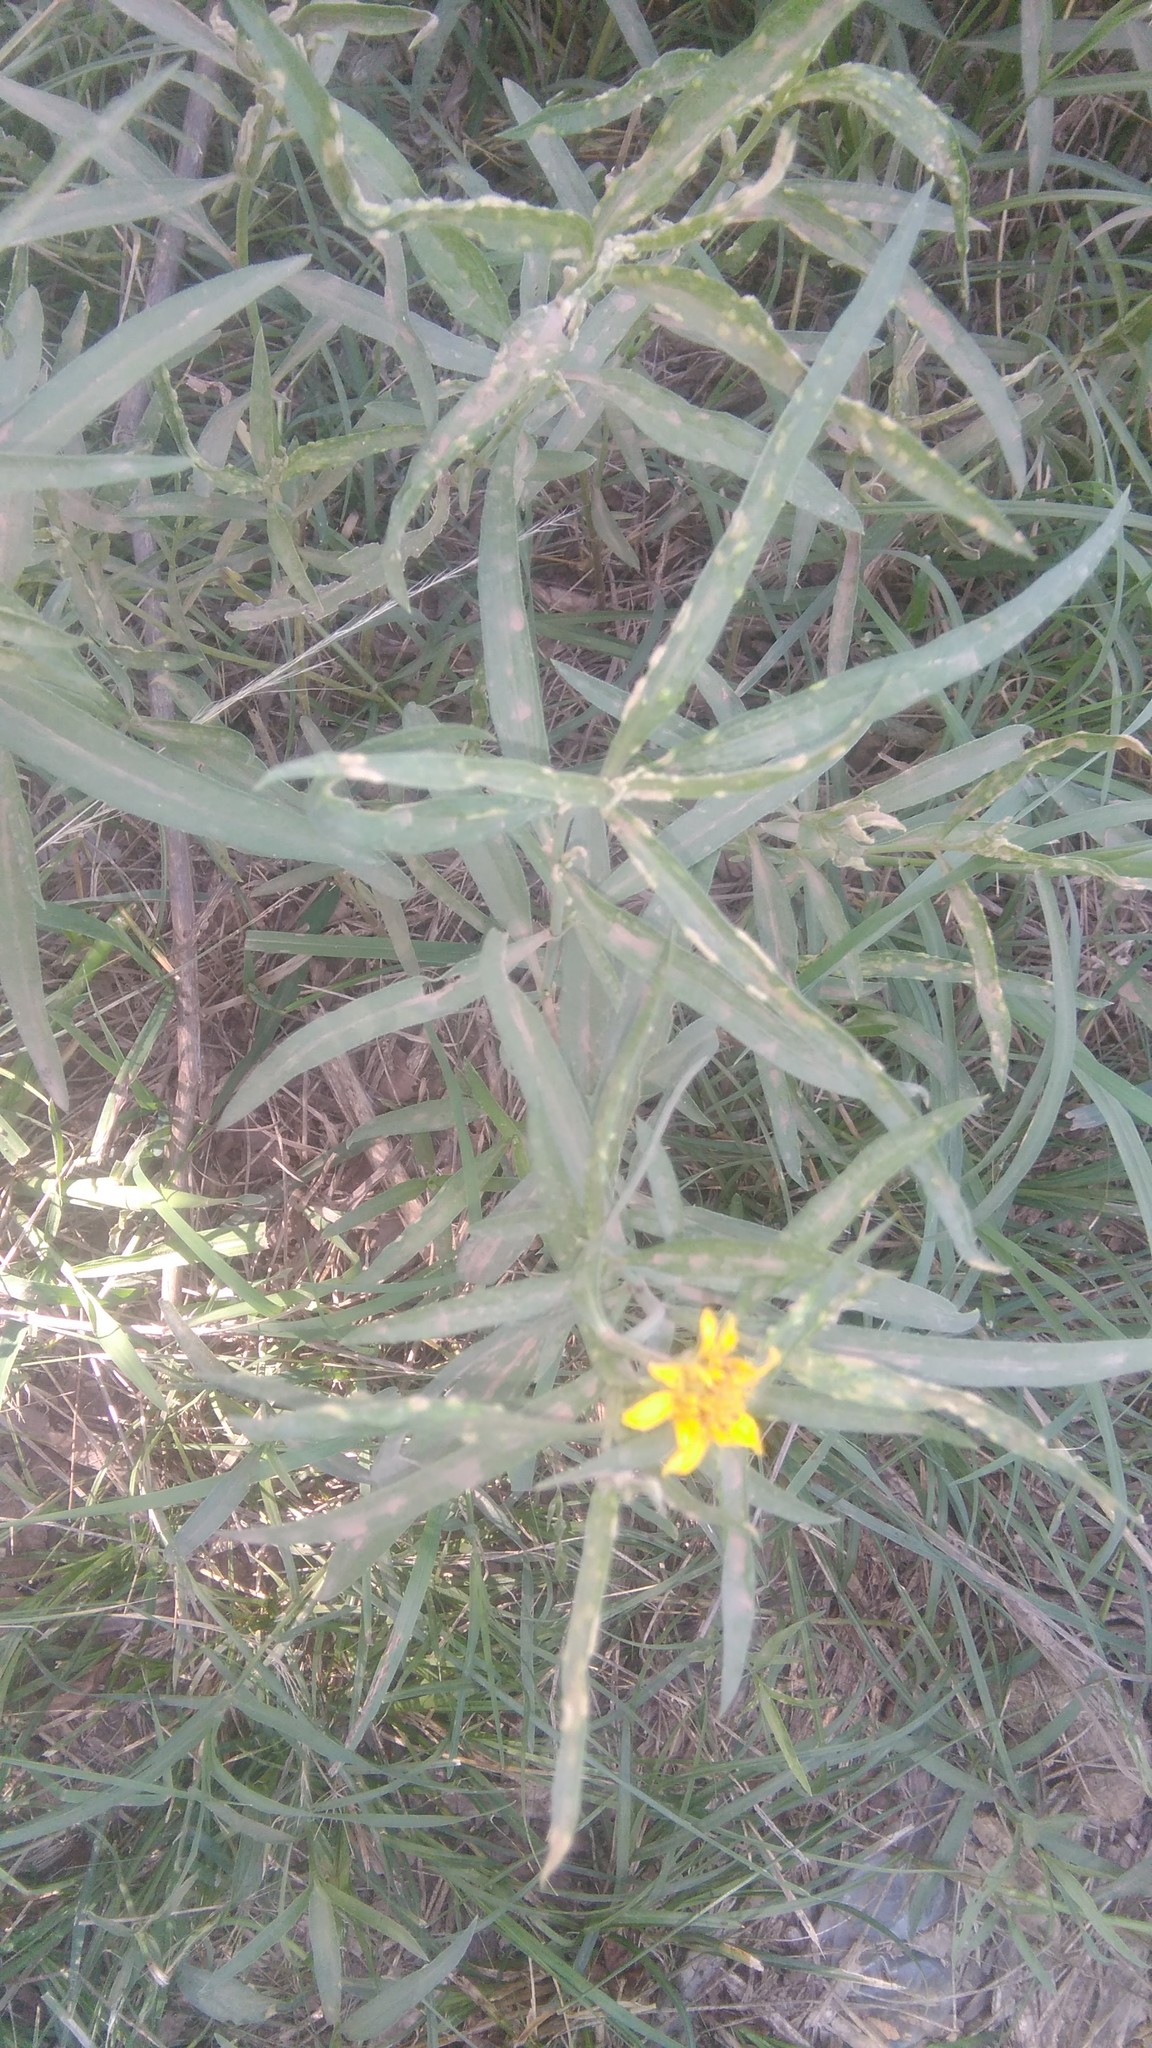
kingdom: Plantae
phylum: Tracheophyta
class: Magnoliopsida
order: Asterales
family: Asteraceae
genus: Pascalia
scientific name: Pascalia glauca
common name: Beach creeping oxeye
